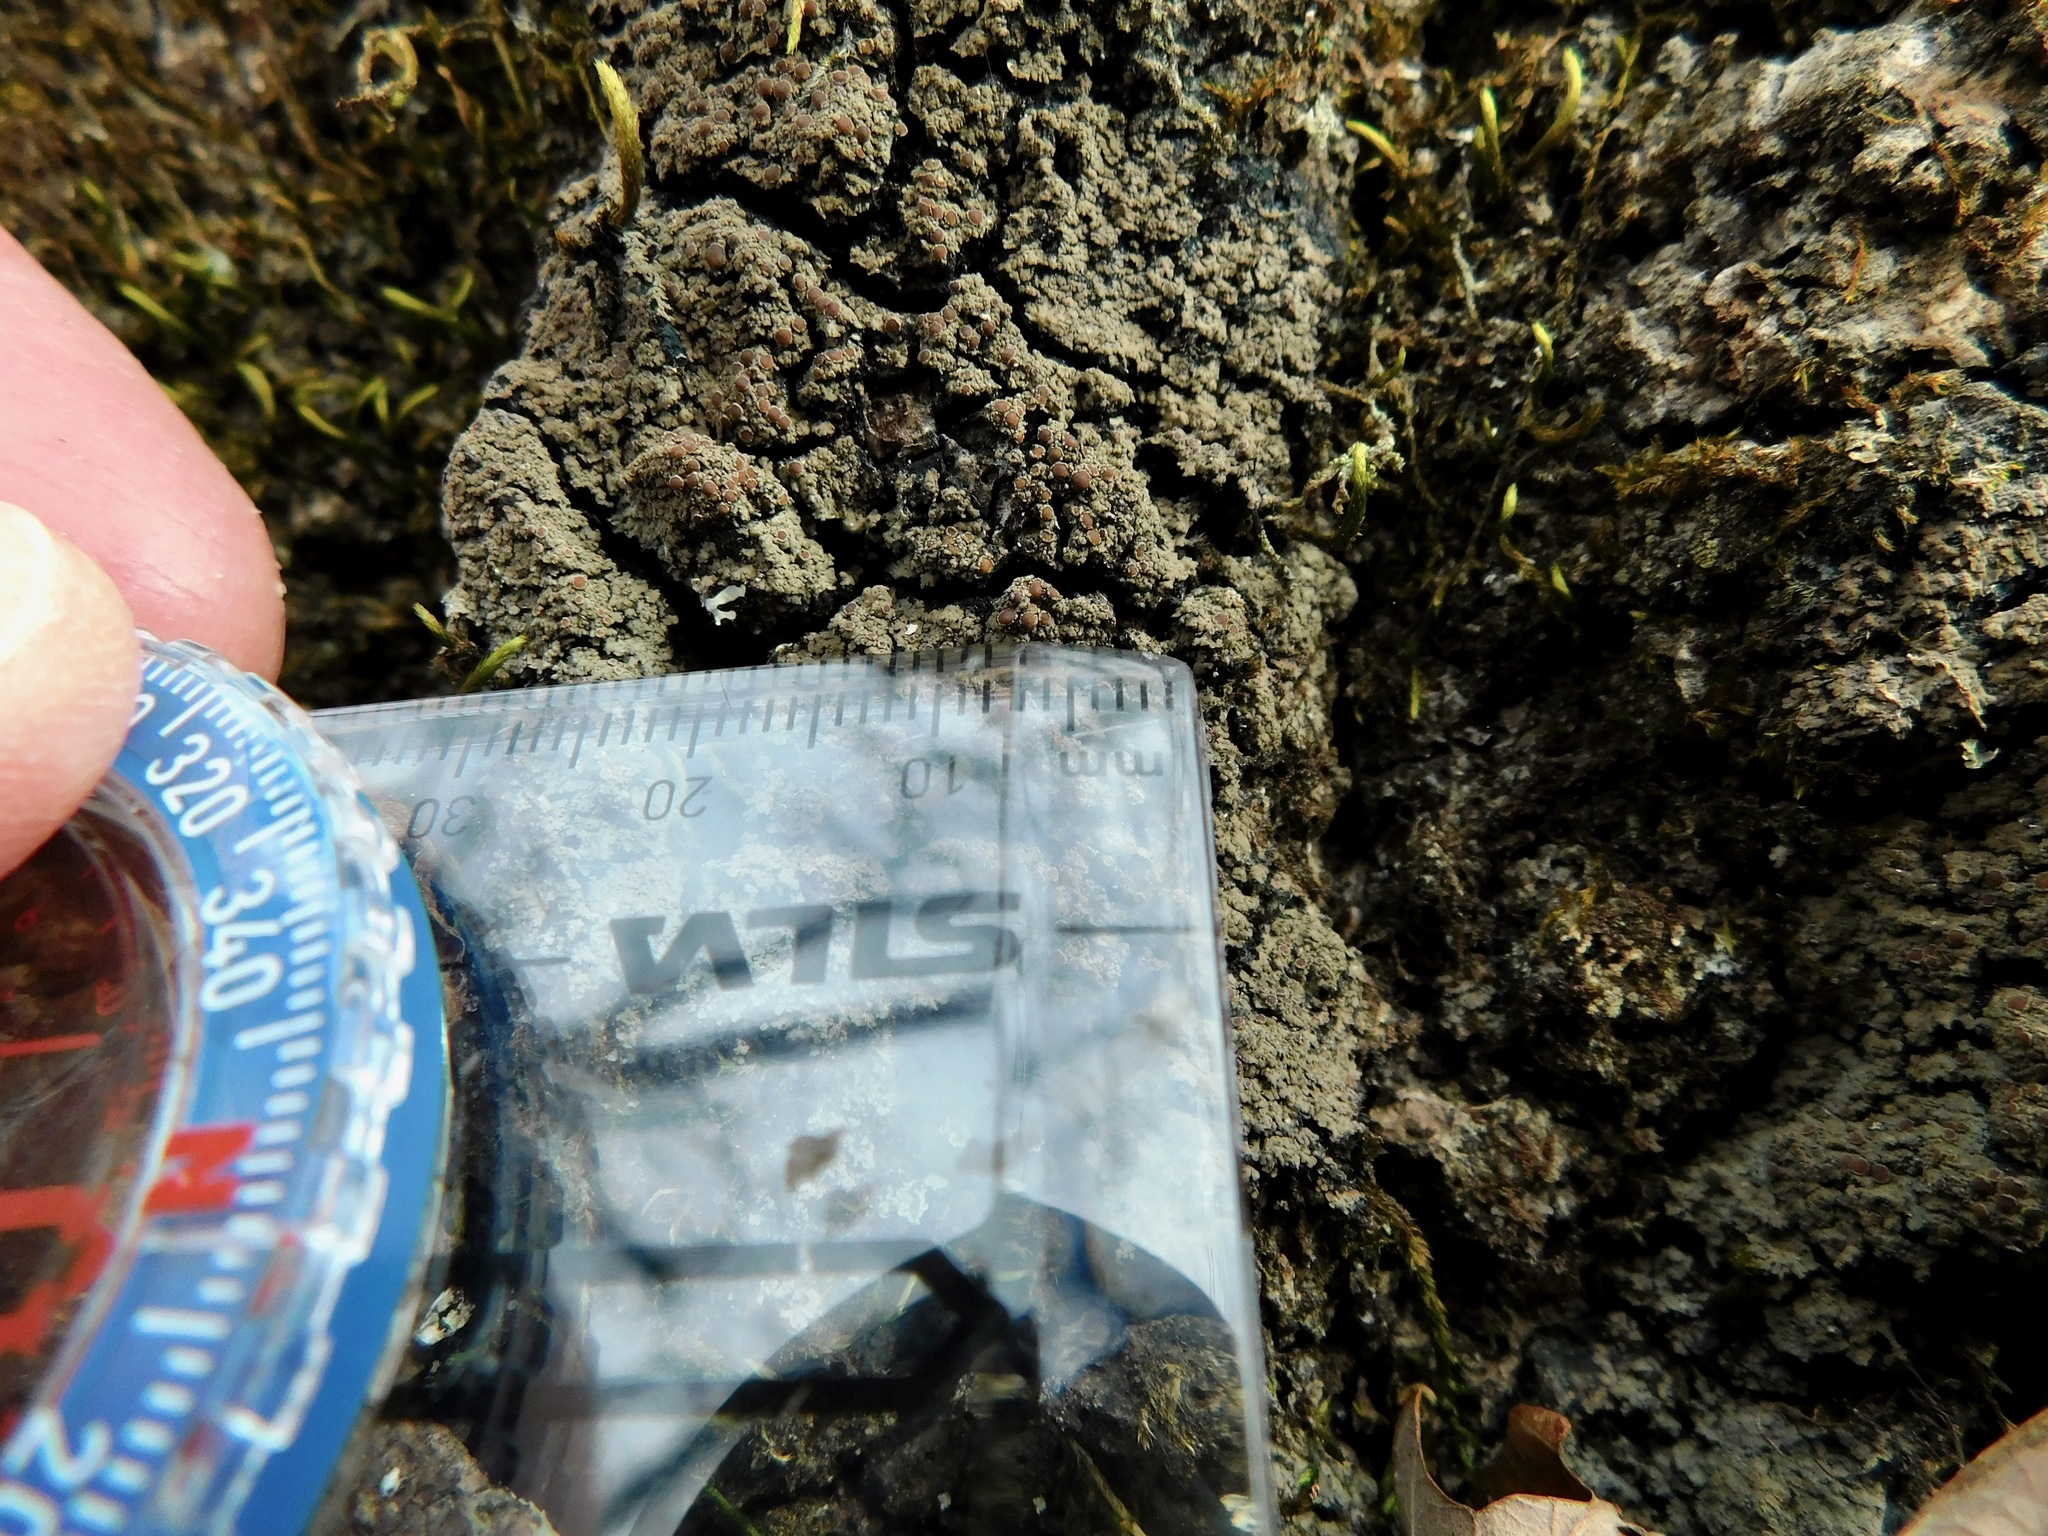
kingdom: Fungi
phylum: Ascomycota
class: Lecanoromycetes
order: Peltigerales
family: Pannariaceae
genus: Fuscopannaria
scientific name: Fuscopannaria leucosticta
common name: Rimmed shingle lichen
